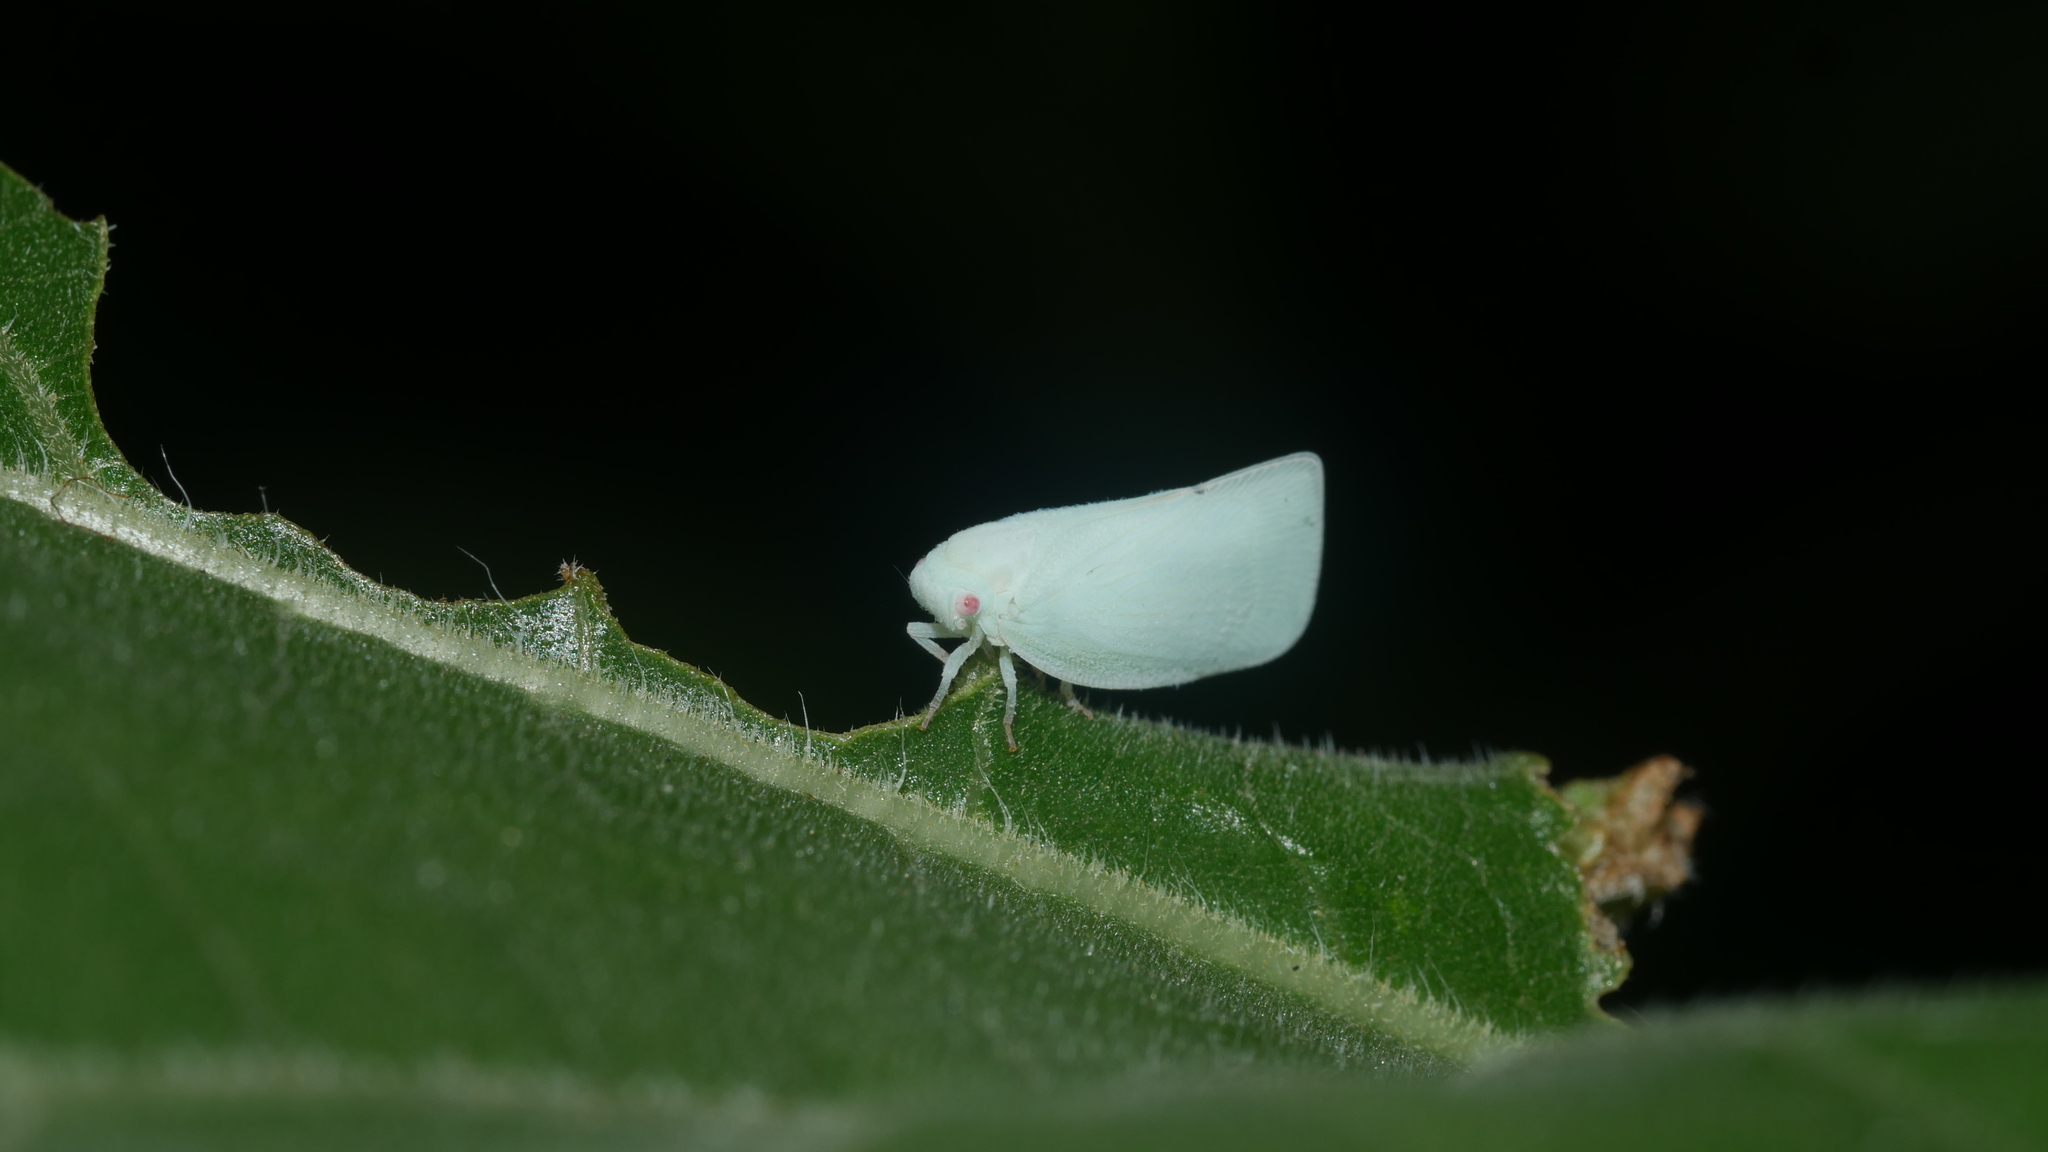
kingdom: Animalia
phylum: Arthropoda
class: Insecta
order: Hemiptera
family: Flatidae
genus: Flatormenis
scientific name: Flatormenis proxima
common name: Northern flatid planthopper
